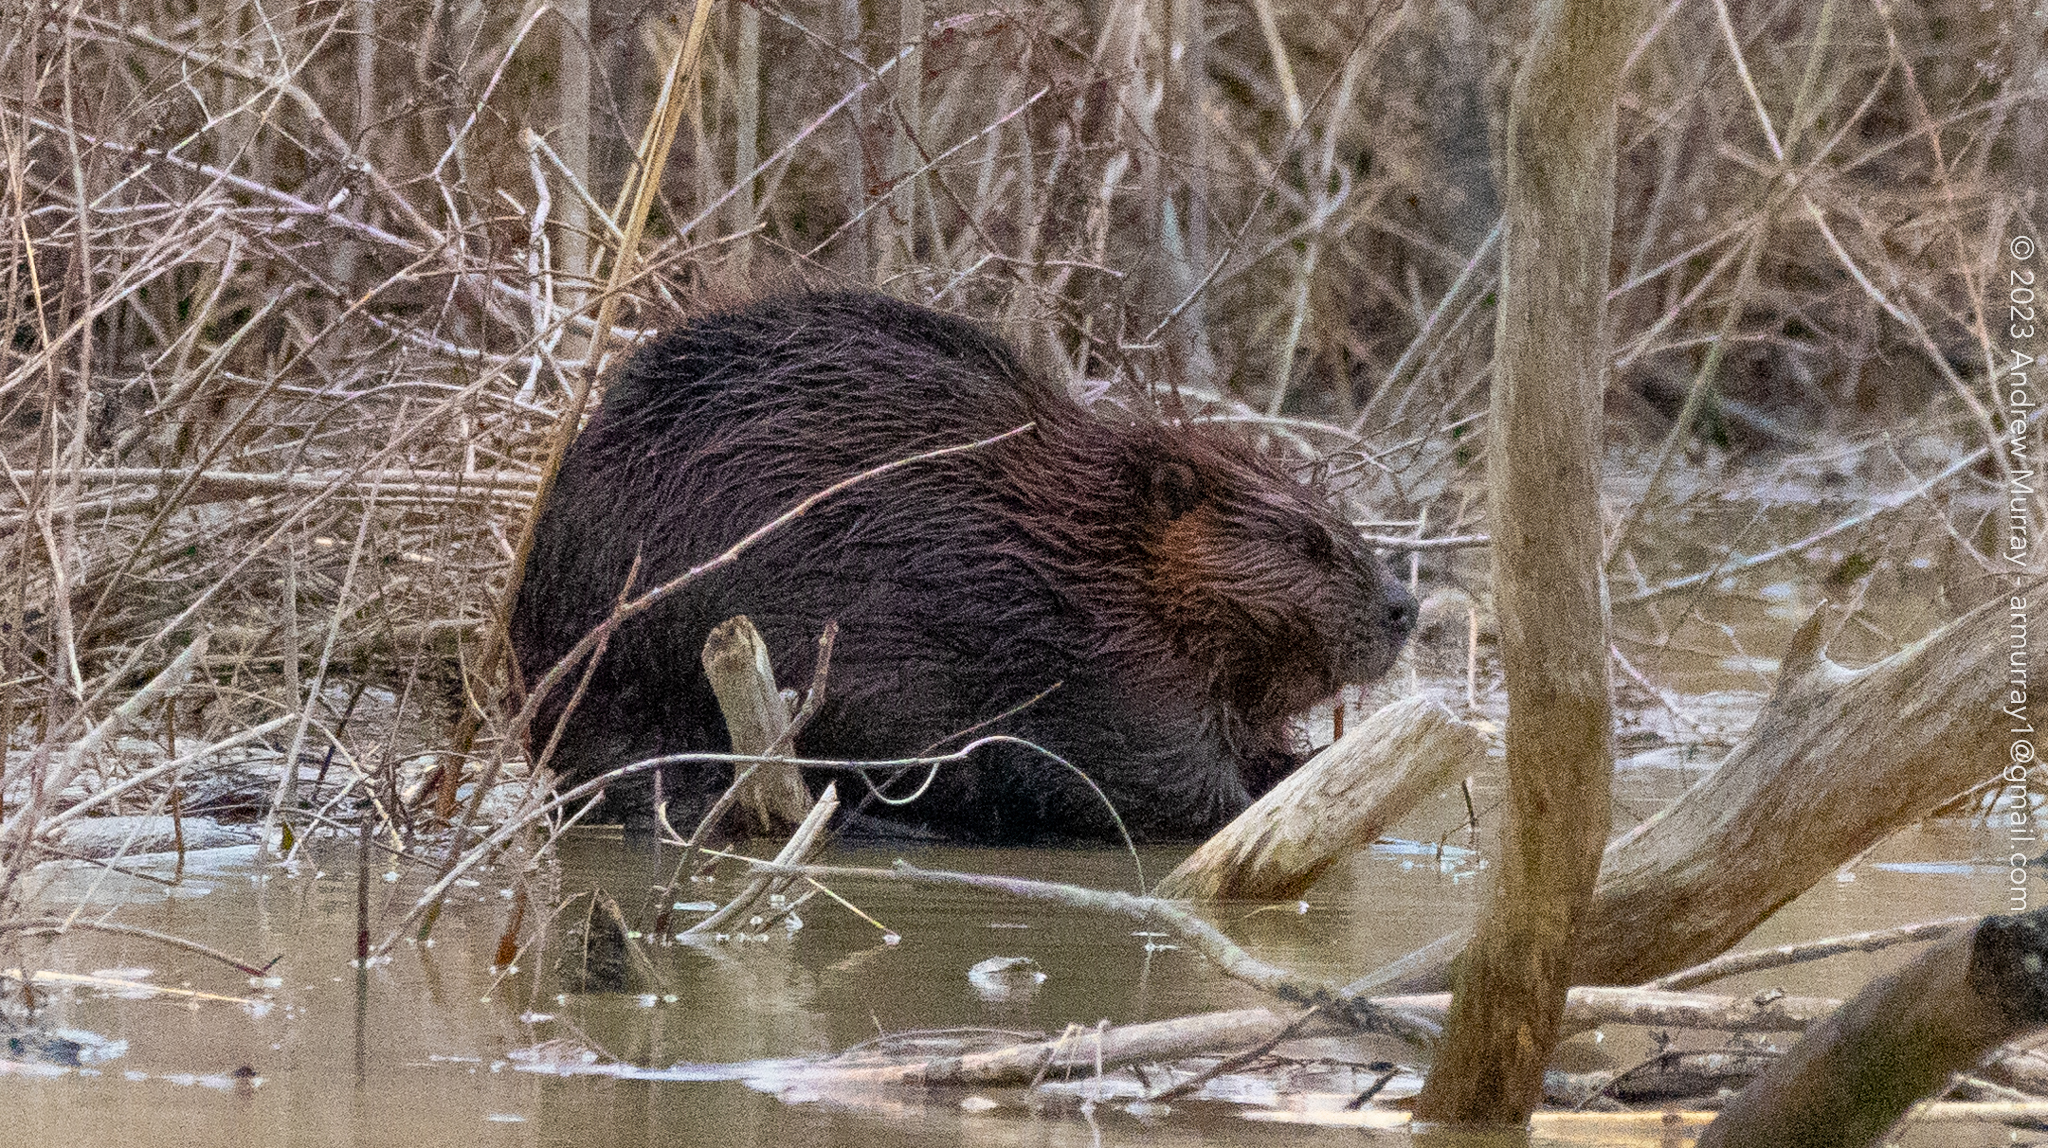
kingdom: Animalia
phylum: Chordata
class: Mammalia
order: Rodentia
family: Castoridae
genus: Castor
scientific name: Castor canadensis
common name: American beaver
